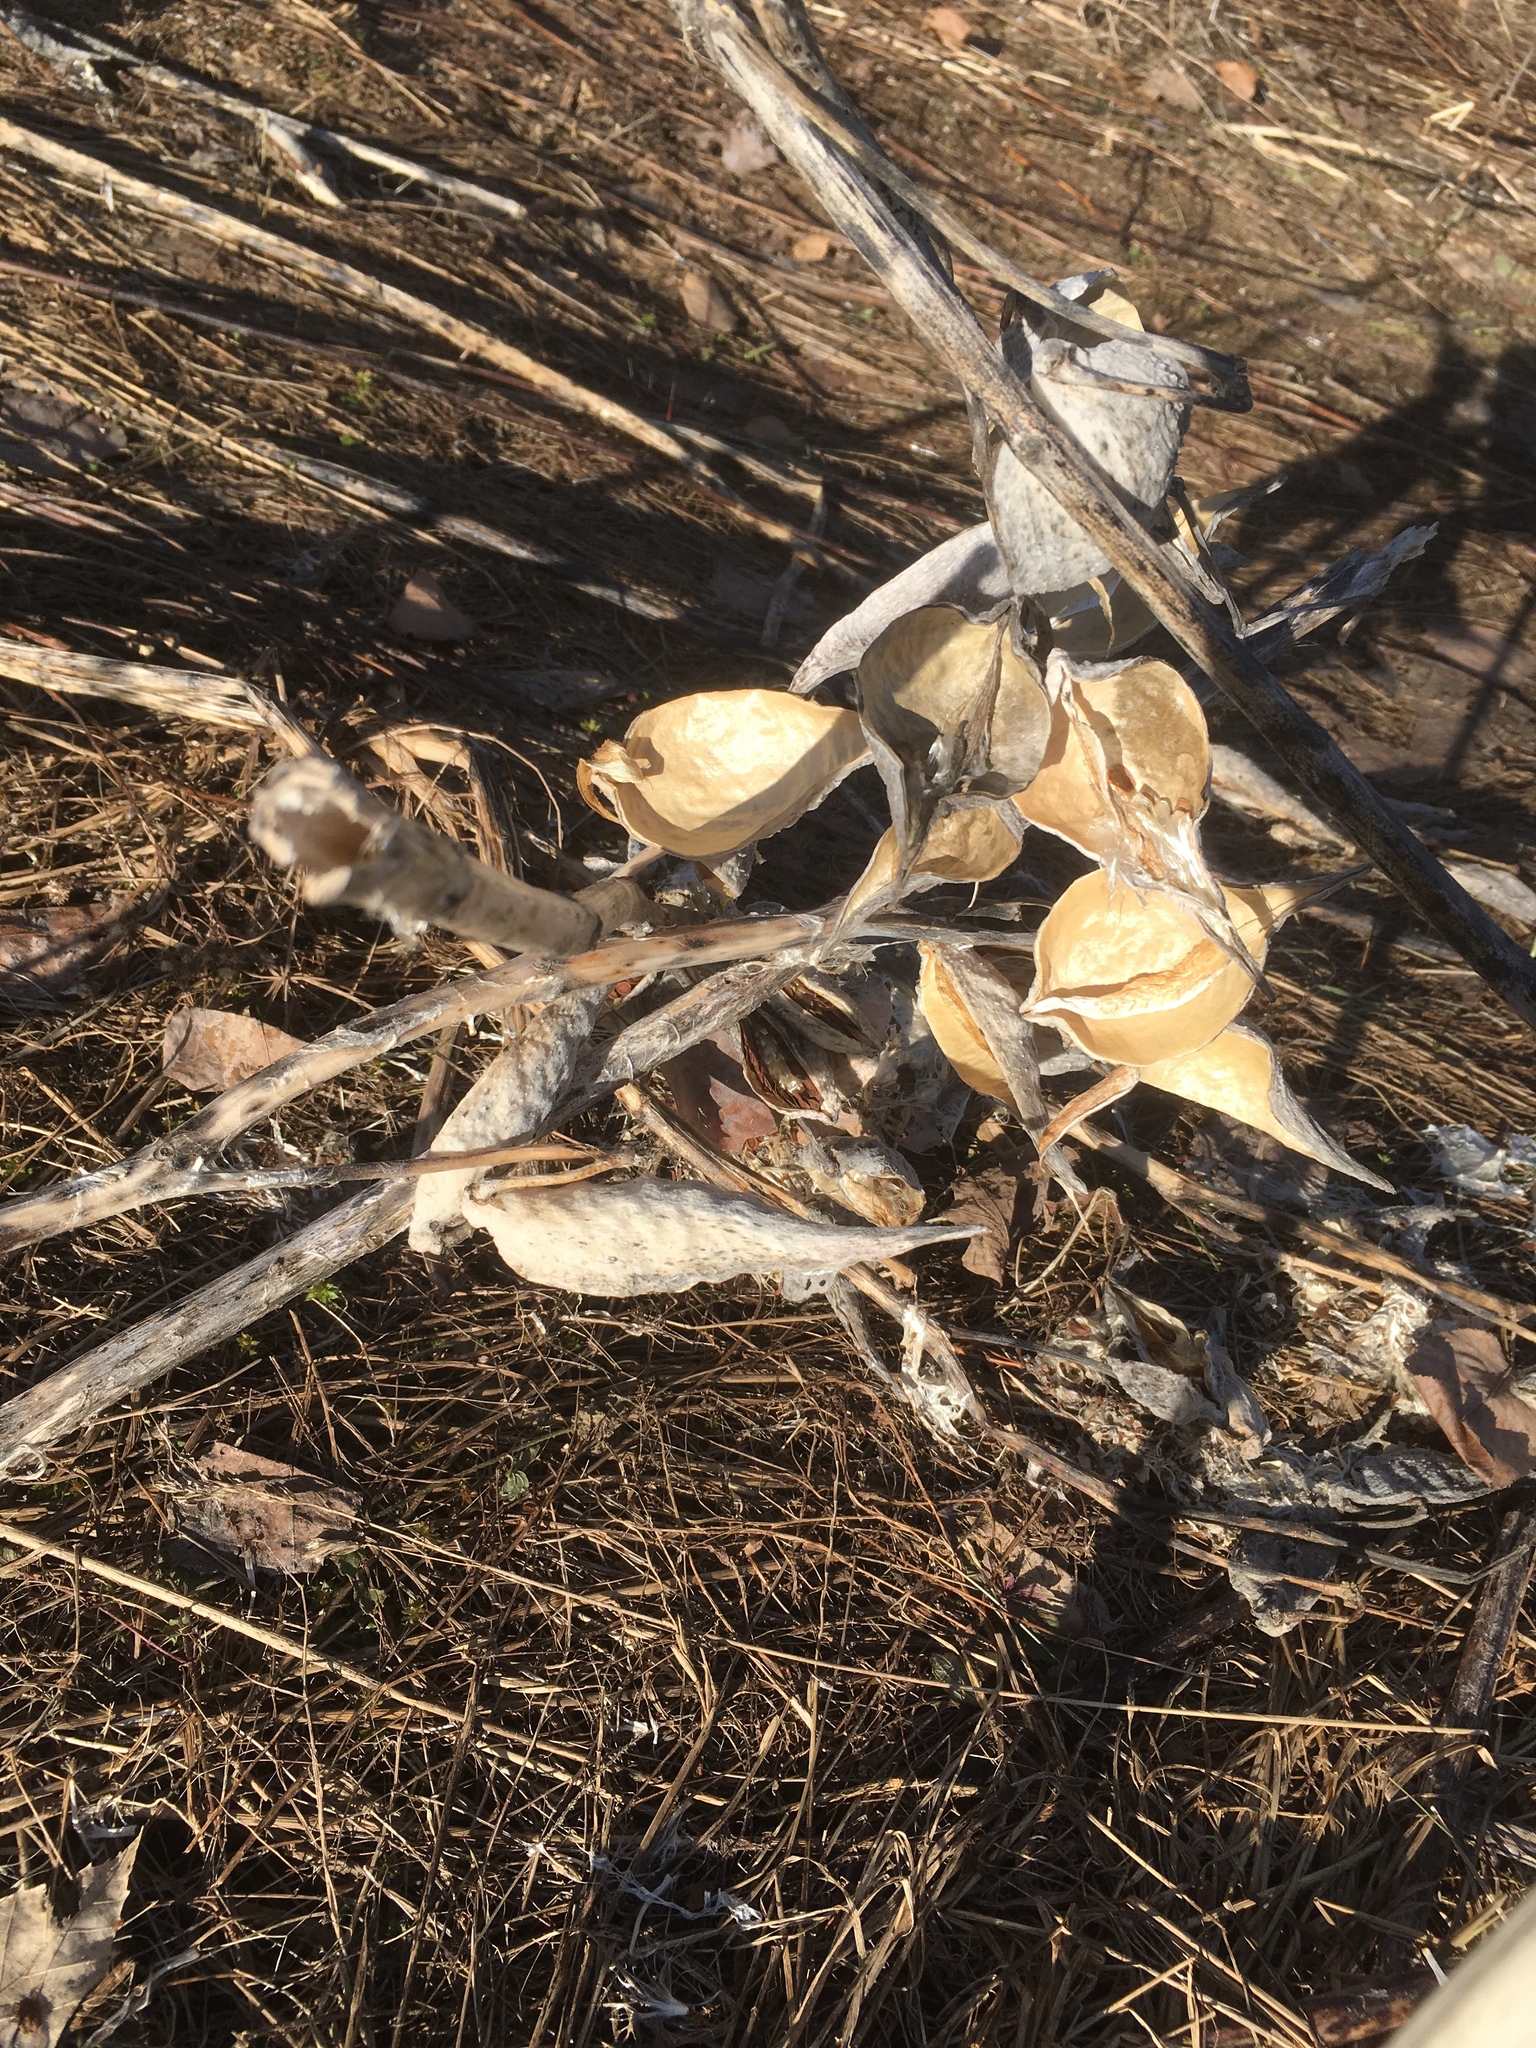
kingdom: Plantae
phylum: Tracheophyta
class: Magnoliopsida
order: Gentianales
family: Apocynaceae
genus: Asclepias
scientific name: Asclepias syriaca
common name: Common milkweed
